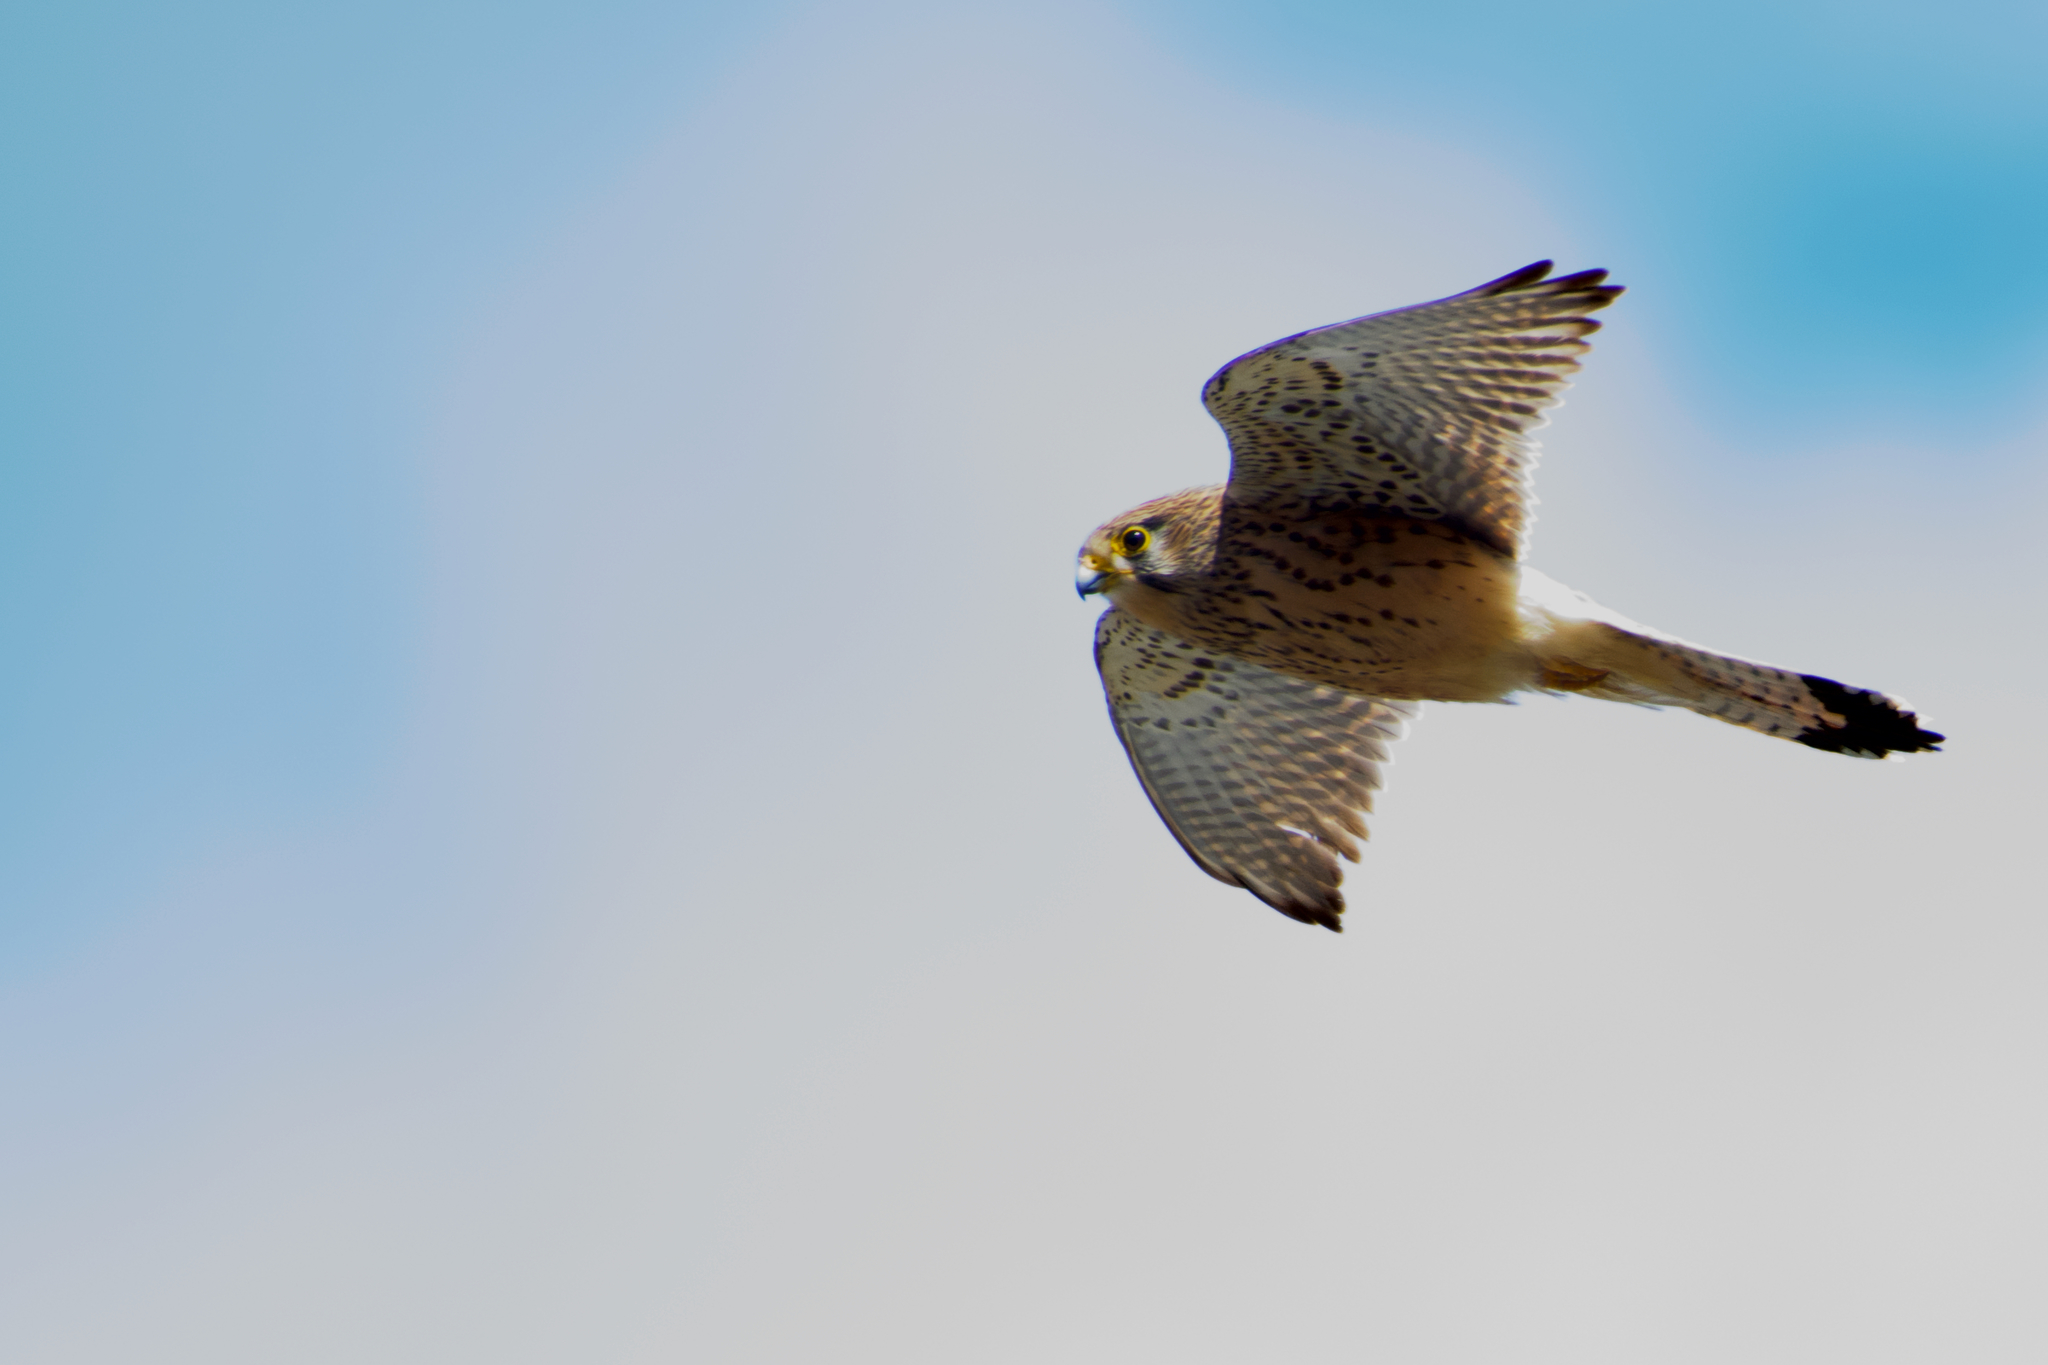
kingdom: Animalia
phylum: Chordata
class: Aves
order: Falconiformes
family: Falconidae
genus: Falco
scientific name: Falco tinnunculus
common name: Common kestrel
